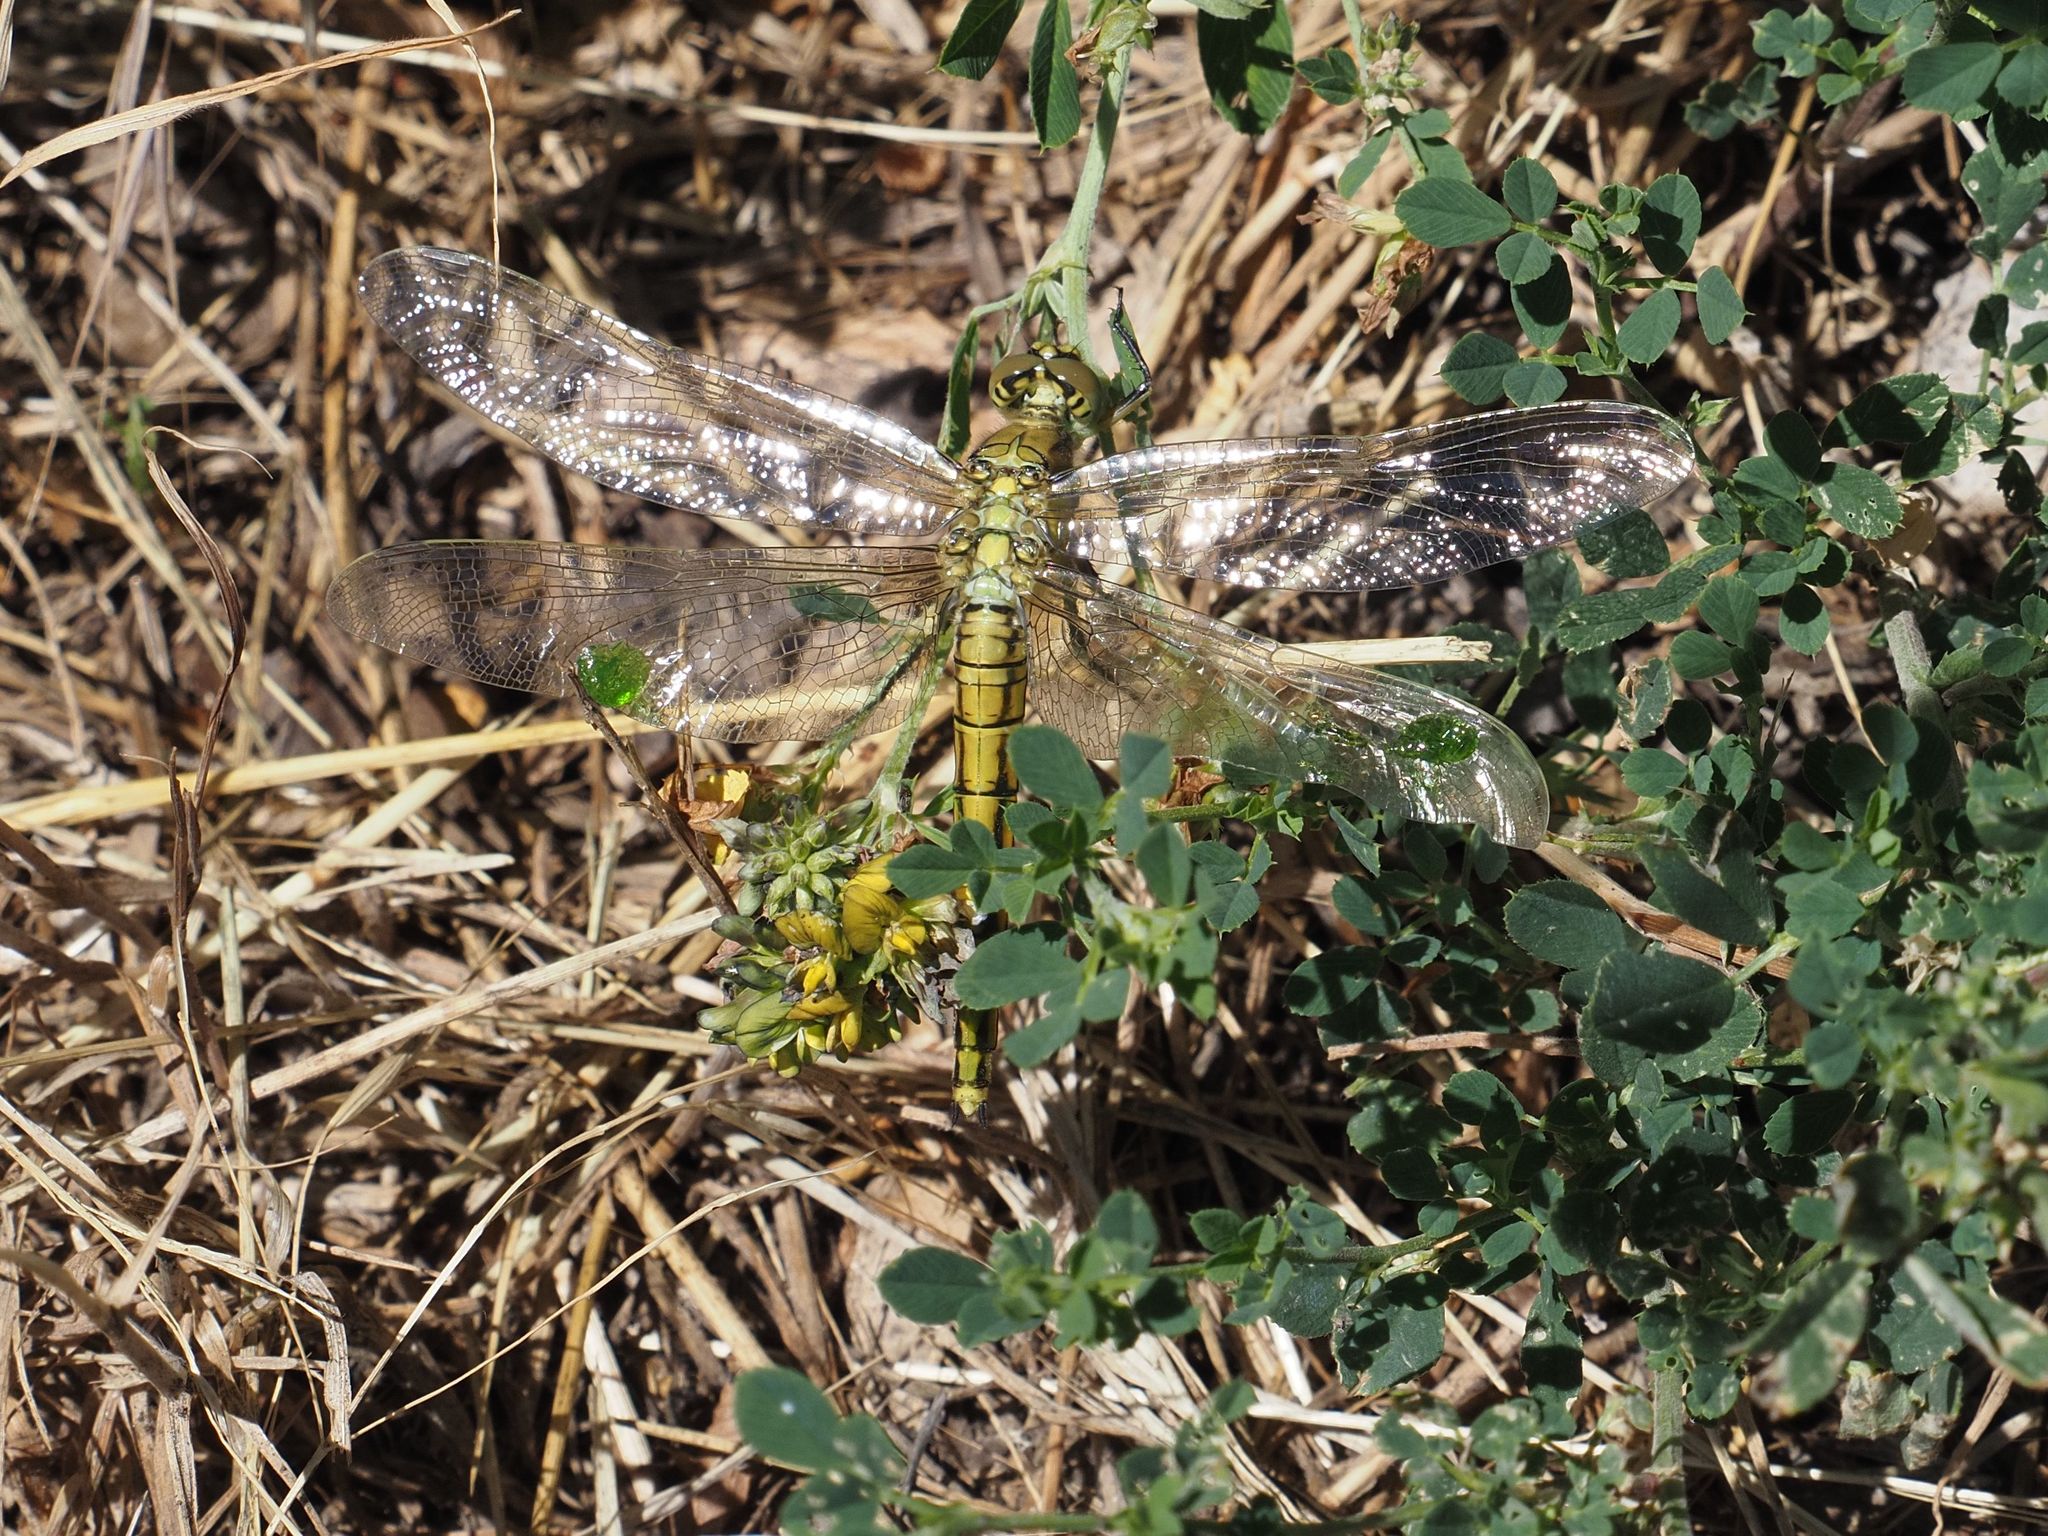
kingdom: Animalia
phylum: Arthropoda
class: Insecta
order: Odonata
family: Libellulidae
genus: Orthetrum
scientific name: Orthetrum cancellatum
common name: Black-tailed skimmer
